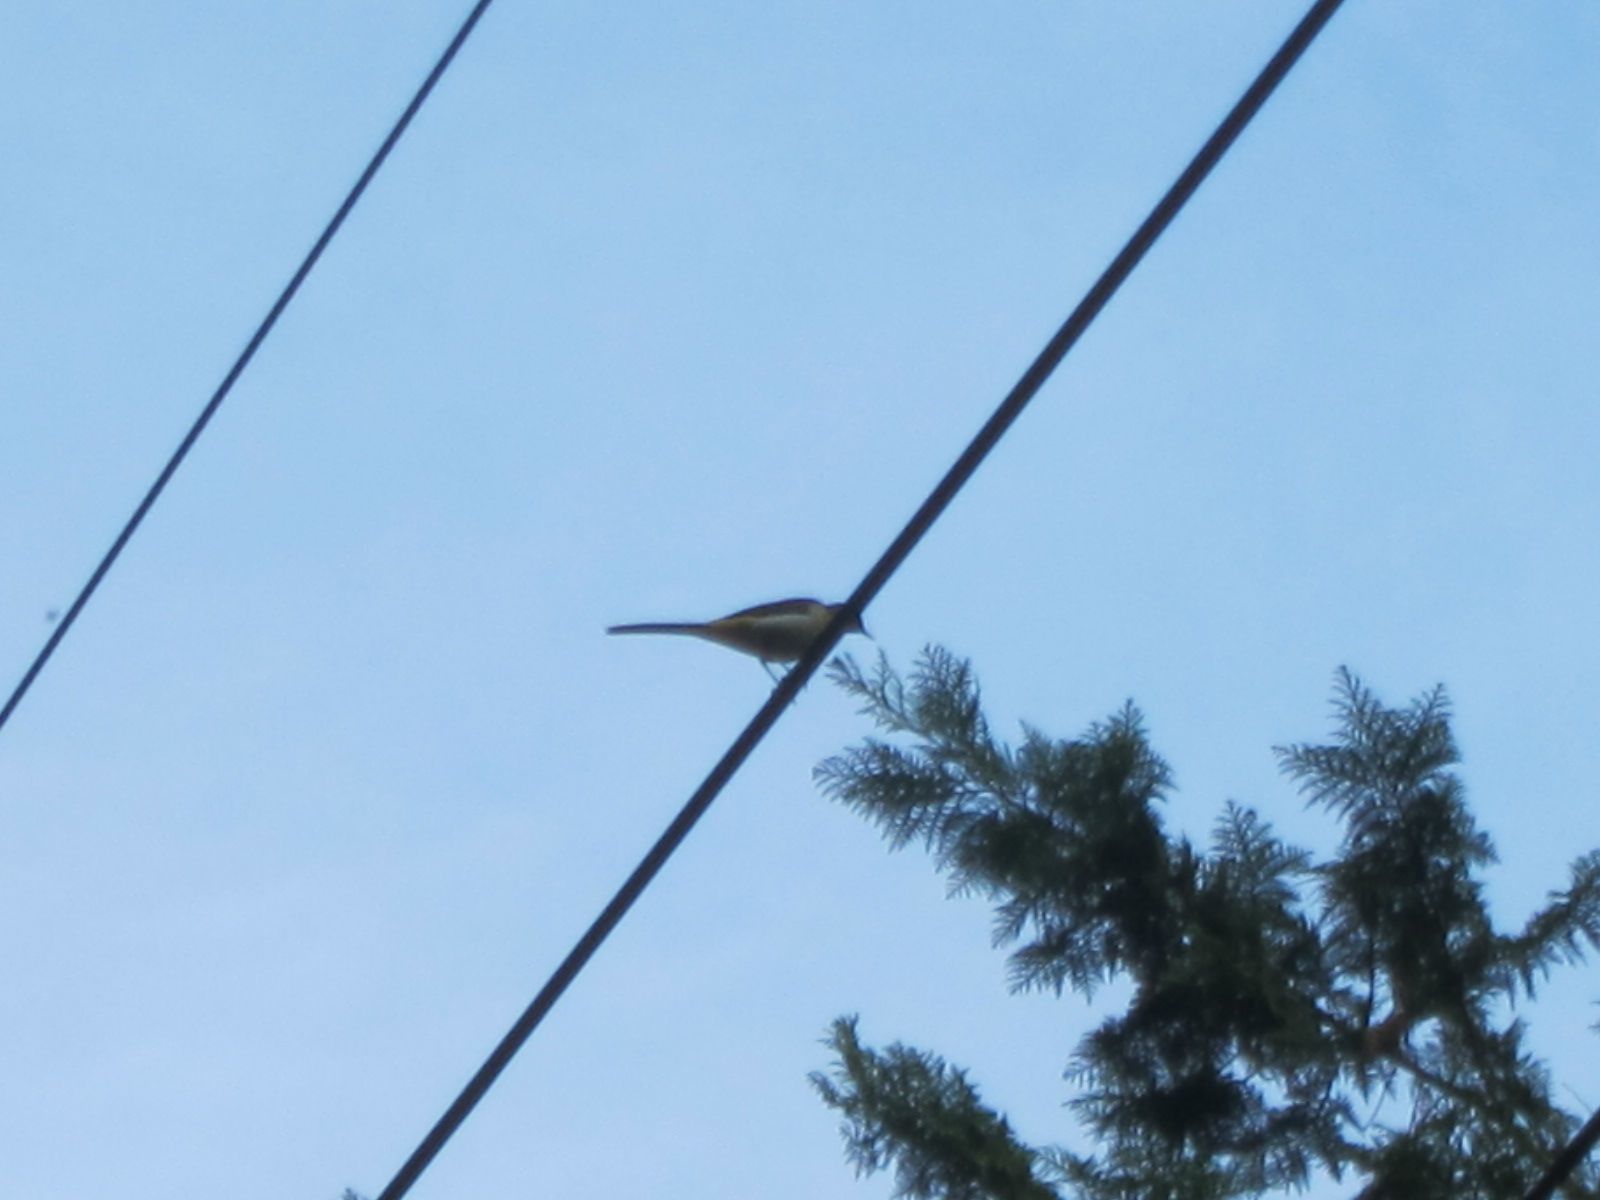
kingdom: Animalia
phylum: Chordata
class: Aves
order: Passeriformes
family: Motacillidae
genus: Motacilla
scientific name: Motacilla cinerea
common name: Grey wagtail
